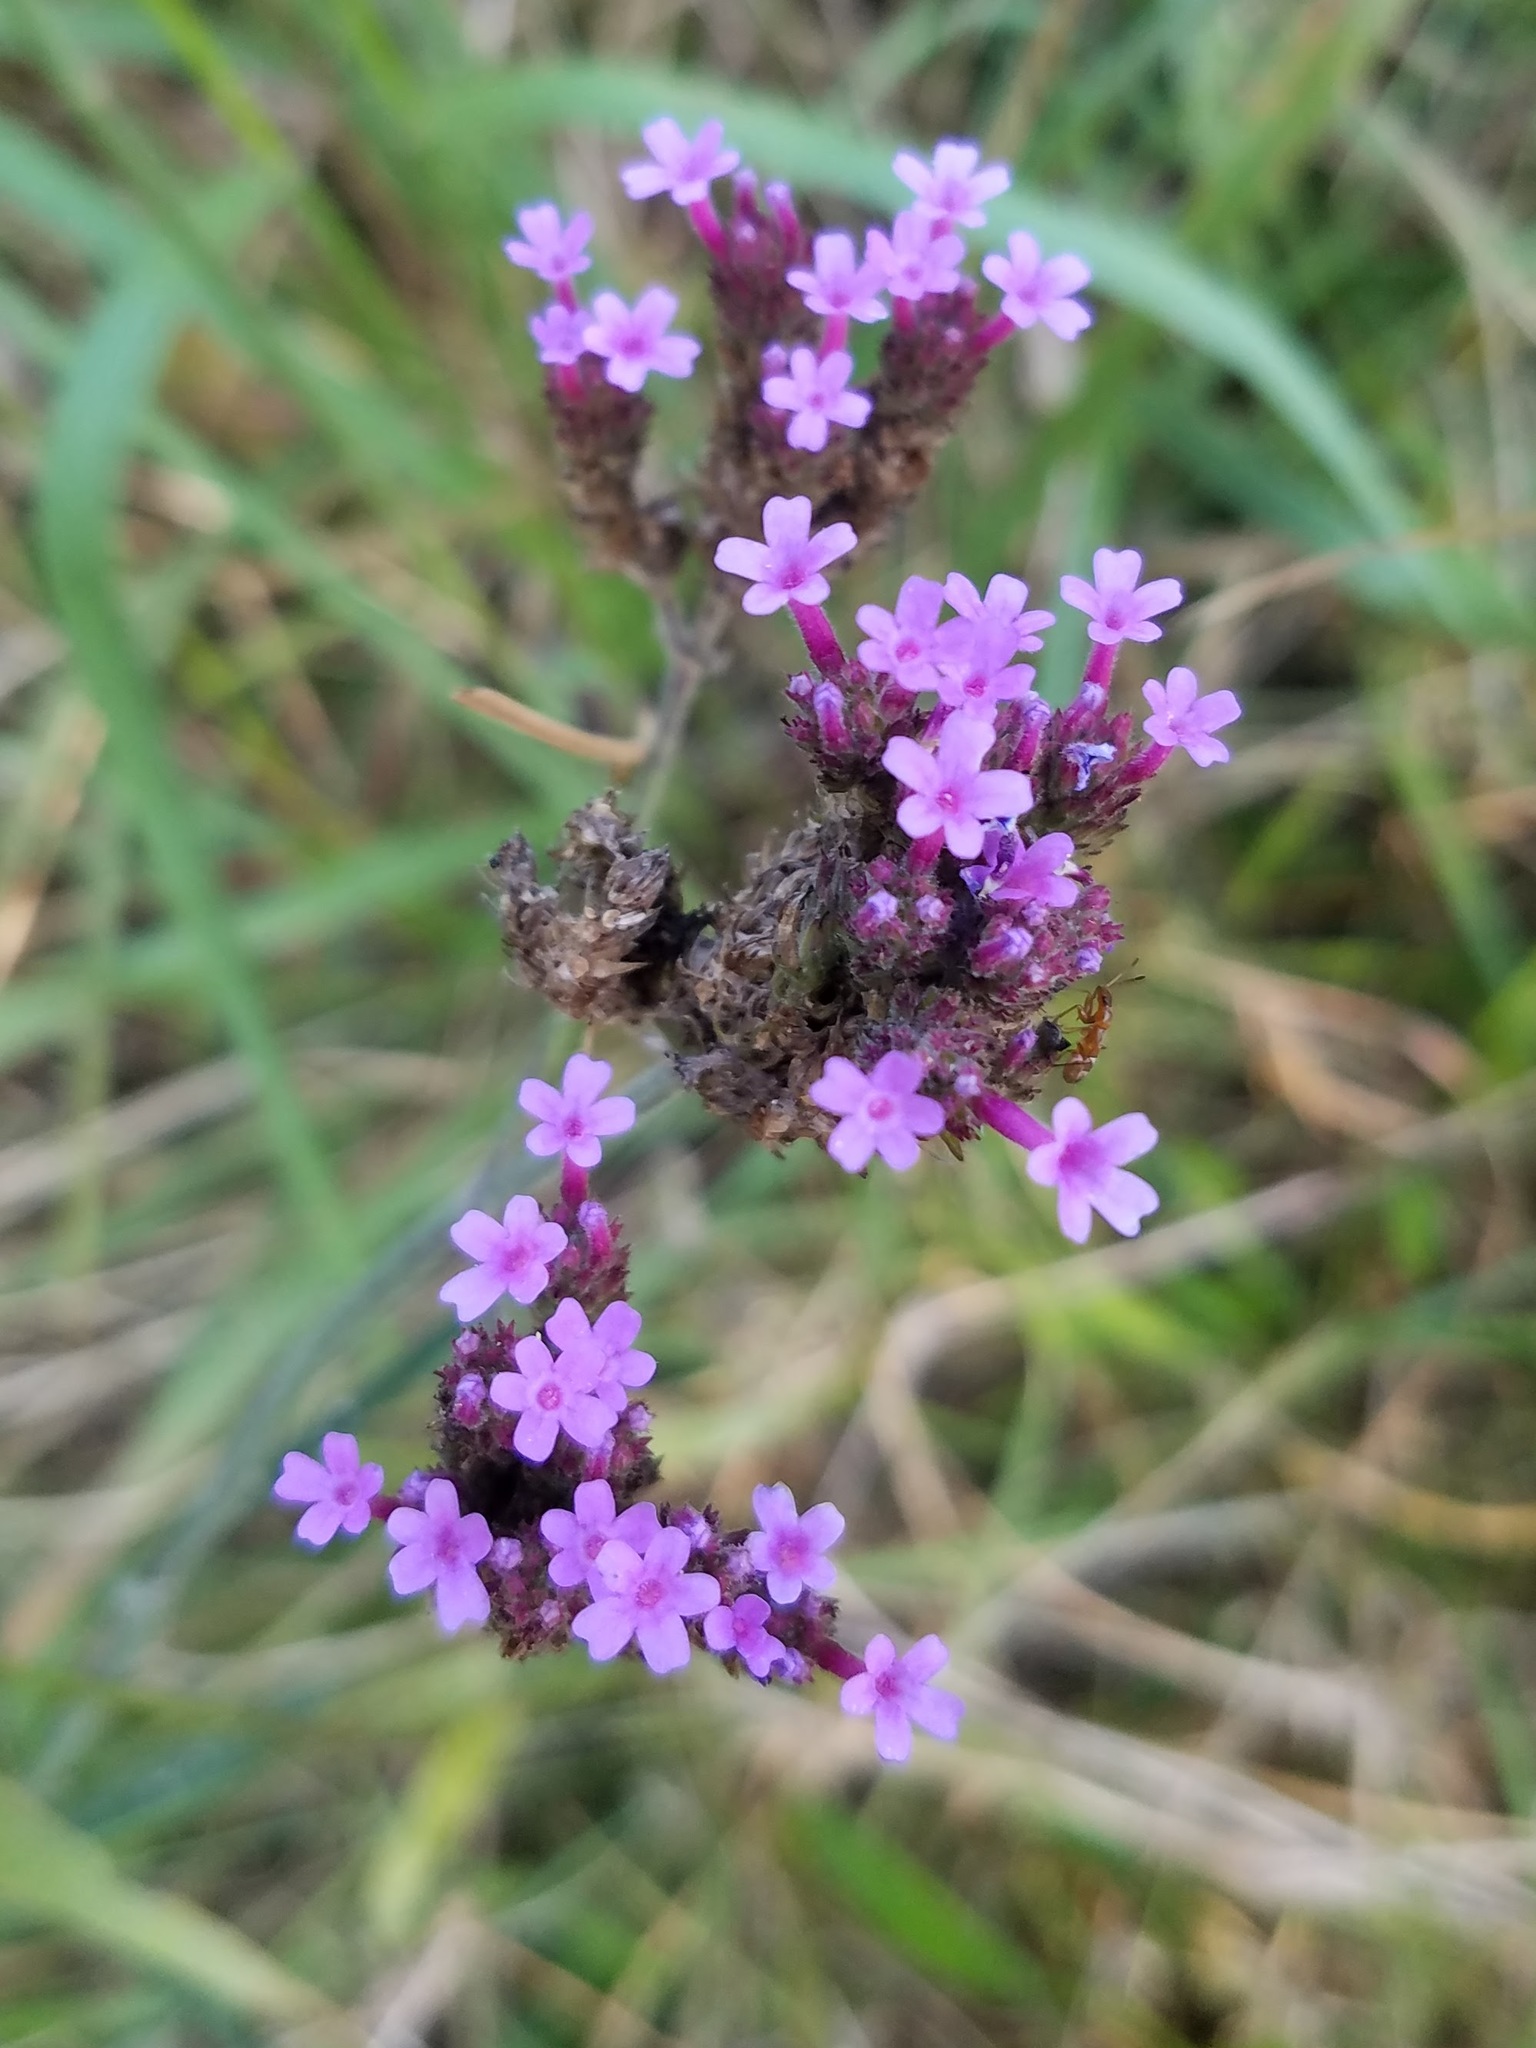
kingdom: Plantae
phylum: Tracheophyta
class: Magnoliopsida
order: Lamiales
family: Verbenaceae
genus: Verbena
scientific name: Verbena bonariensis
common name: Purpletop vervain
